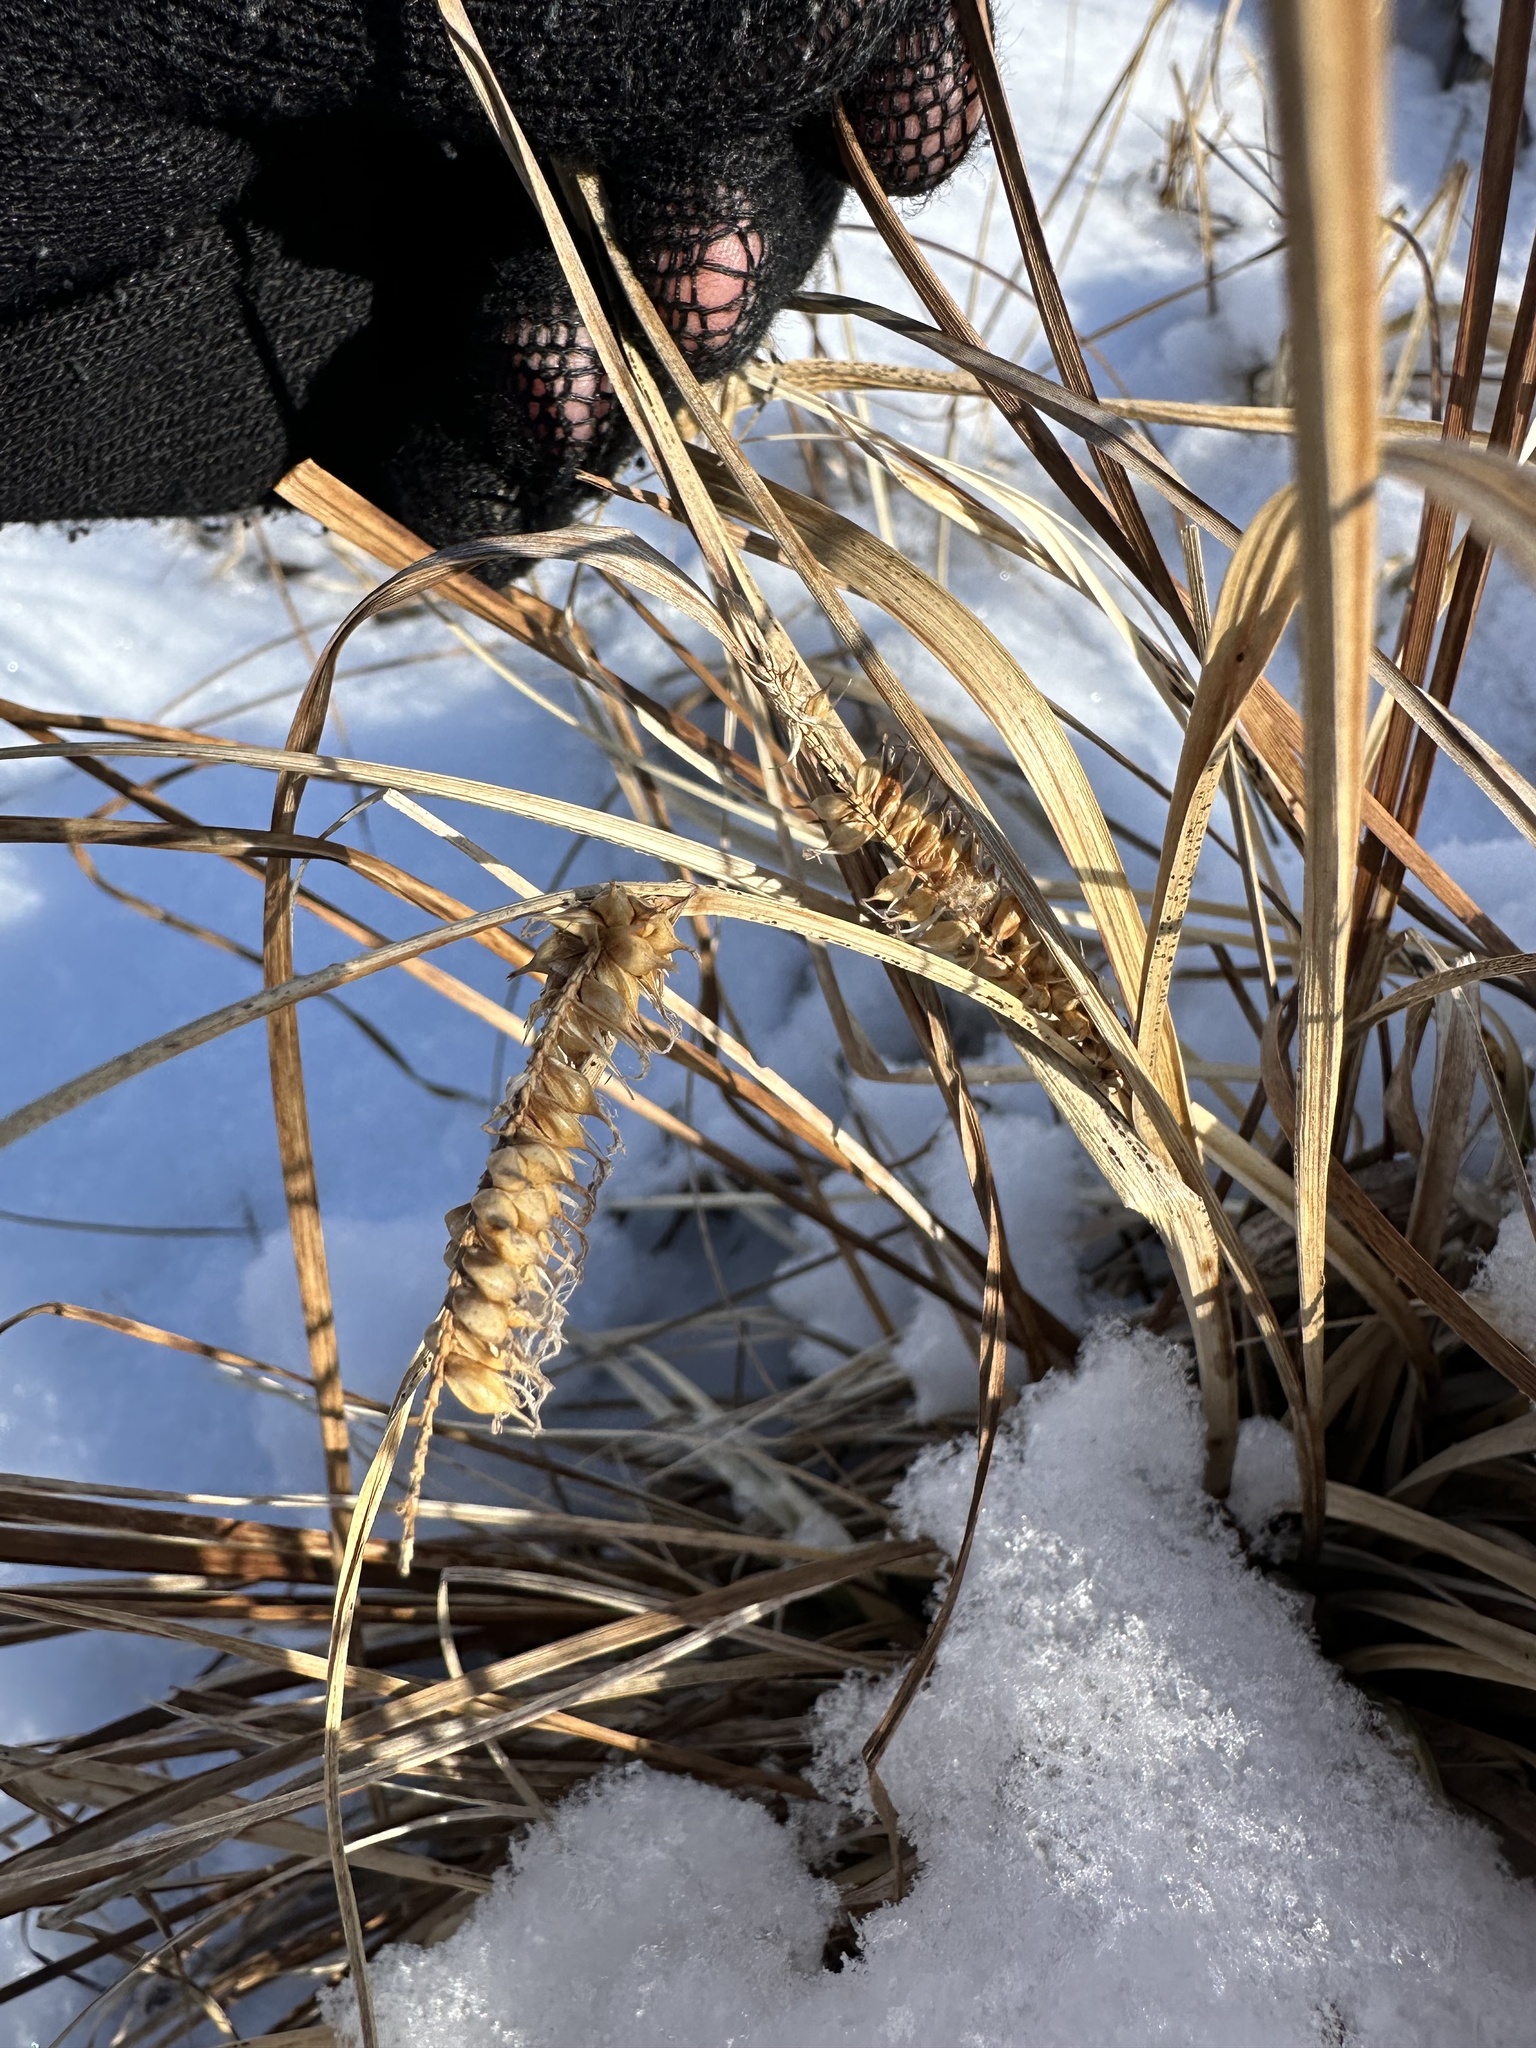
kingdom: Plantae
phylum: Tracheophyta
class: Liliopsida
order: Poales
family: Cyperaceae
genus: Carex
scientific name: Carex utriculata
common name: Beaked sedge
